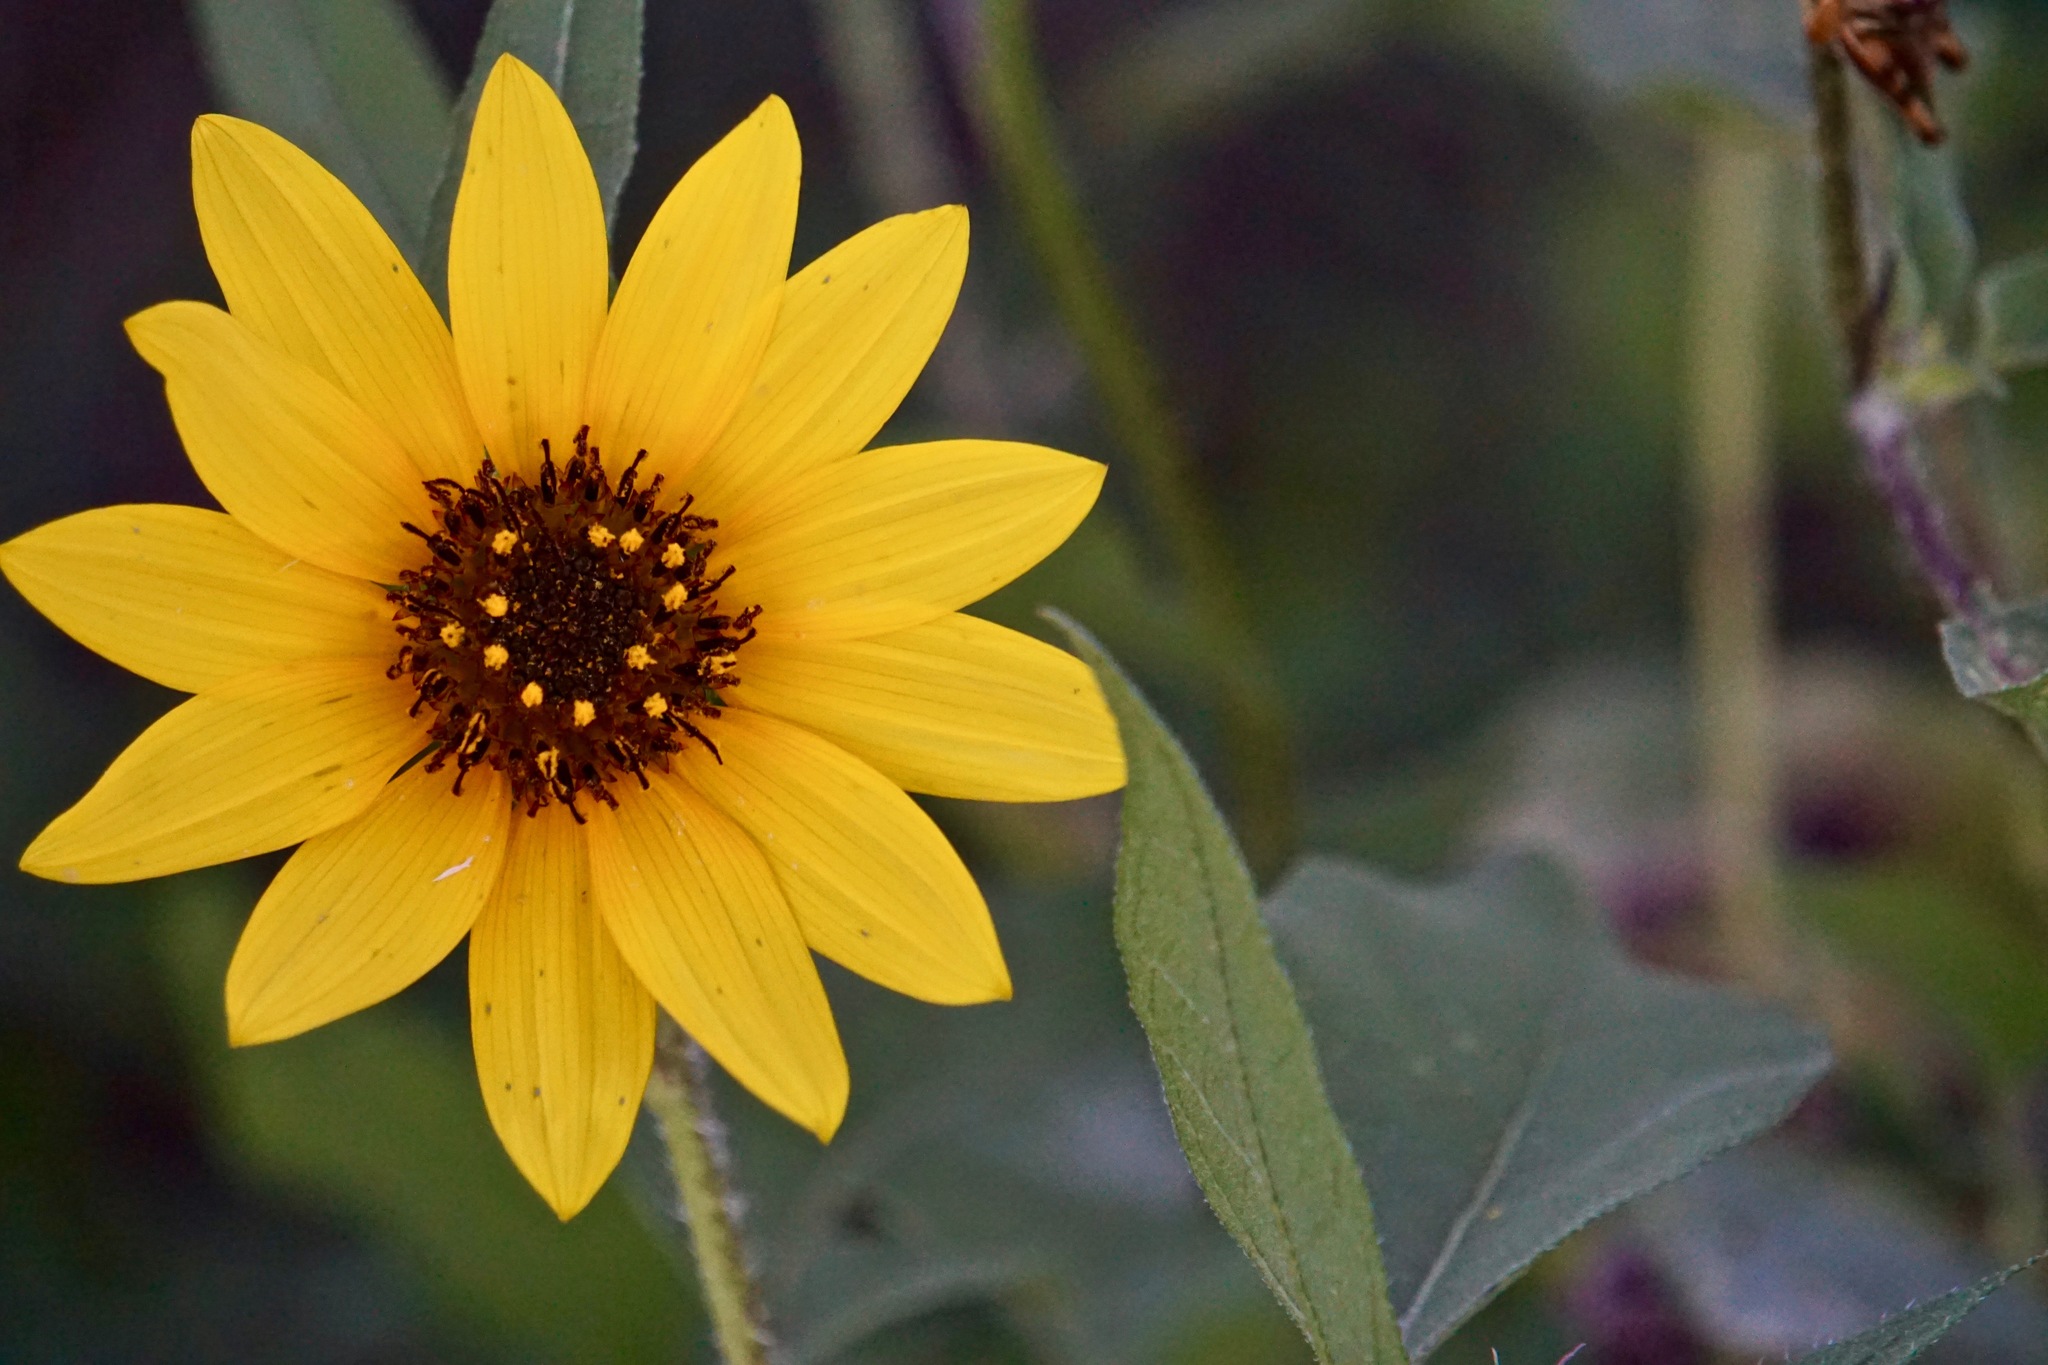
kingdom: Plantae
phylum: Tracheophyta
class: Magnoliopsida
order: Asterales
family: Asteraceae
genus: Helianthus
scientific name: Helianthus annuus
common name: Sunflower
